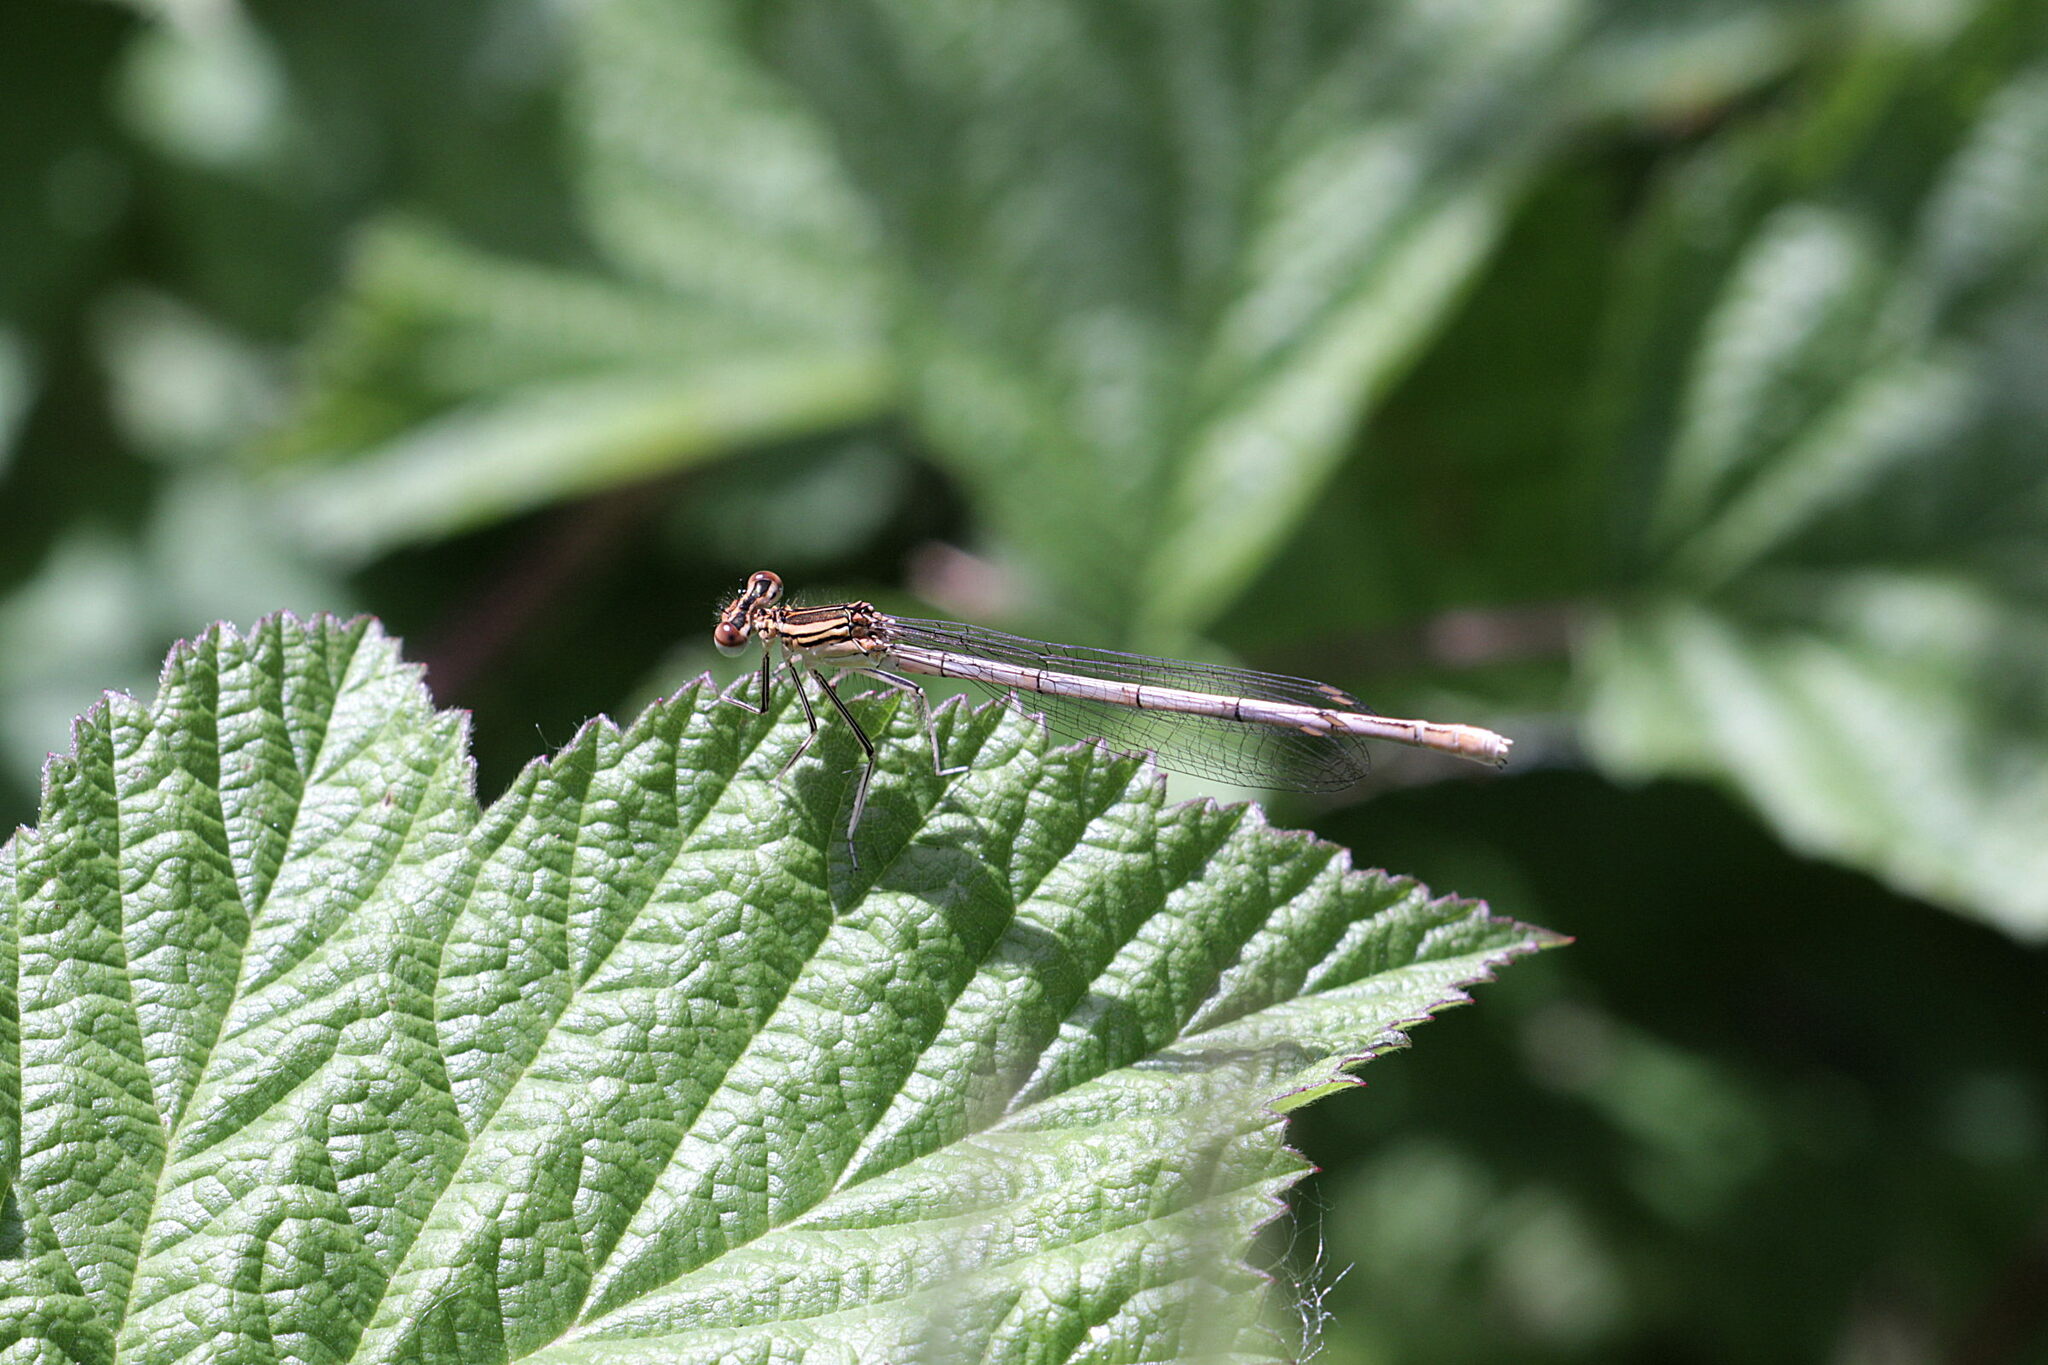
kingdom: Animalia
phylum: Arthropoda
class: Insecta
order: Odonata
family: Platycnemididae
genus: Platycnemis
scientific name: Platycnemis pennipes
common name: White-legged damselfly
